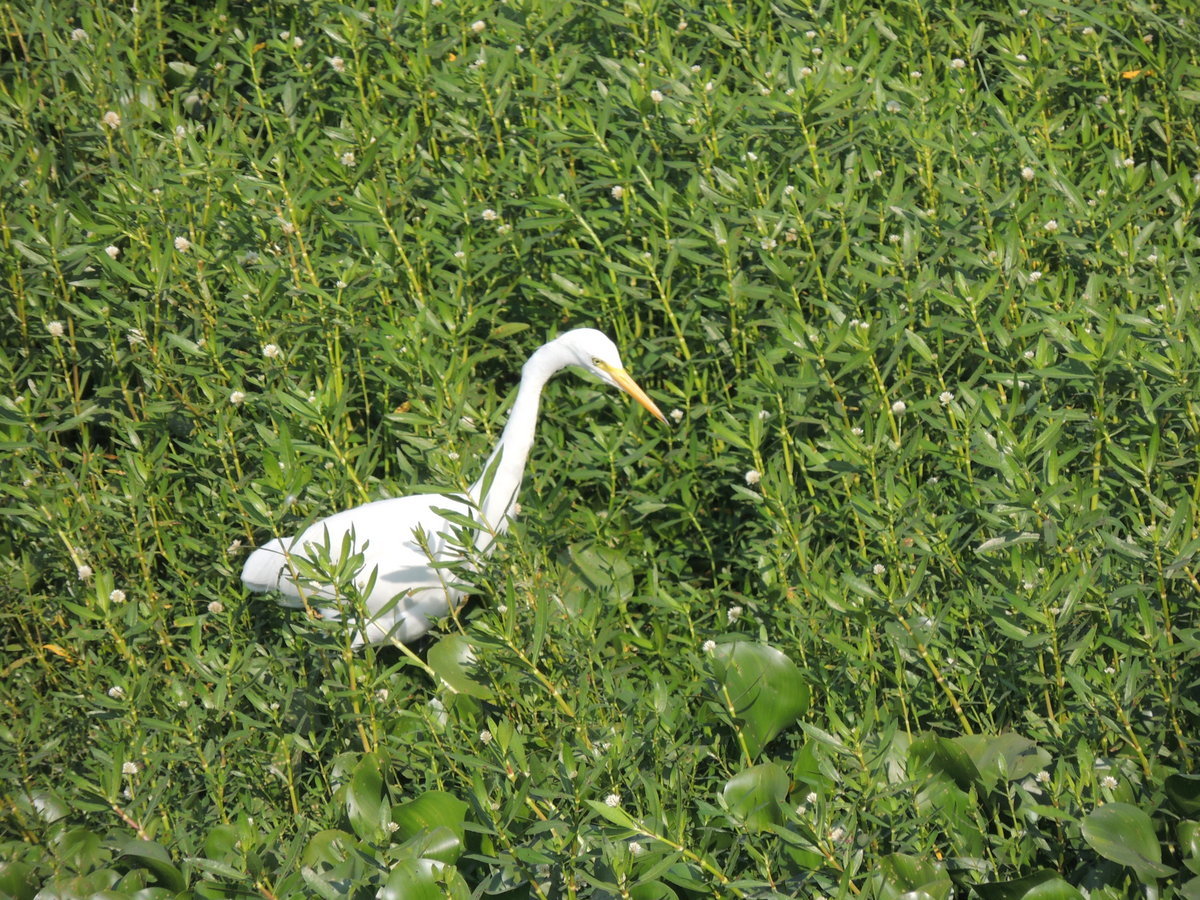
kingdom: Animalia
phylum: Chordata
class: Aves
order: Pelecaniformes
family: Ardeidae
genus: Ardea
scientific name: Ardea alba
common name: Great egret
